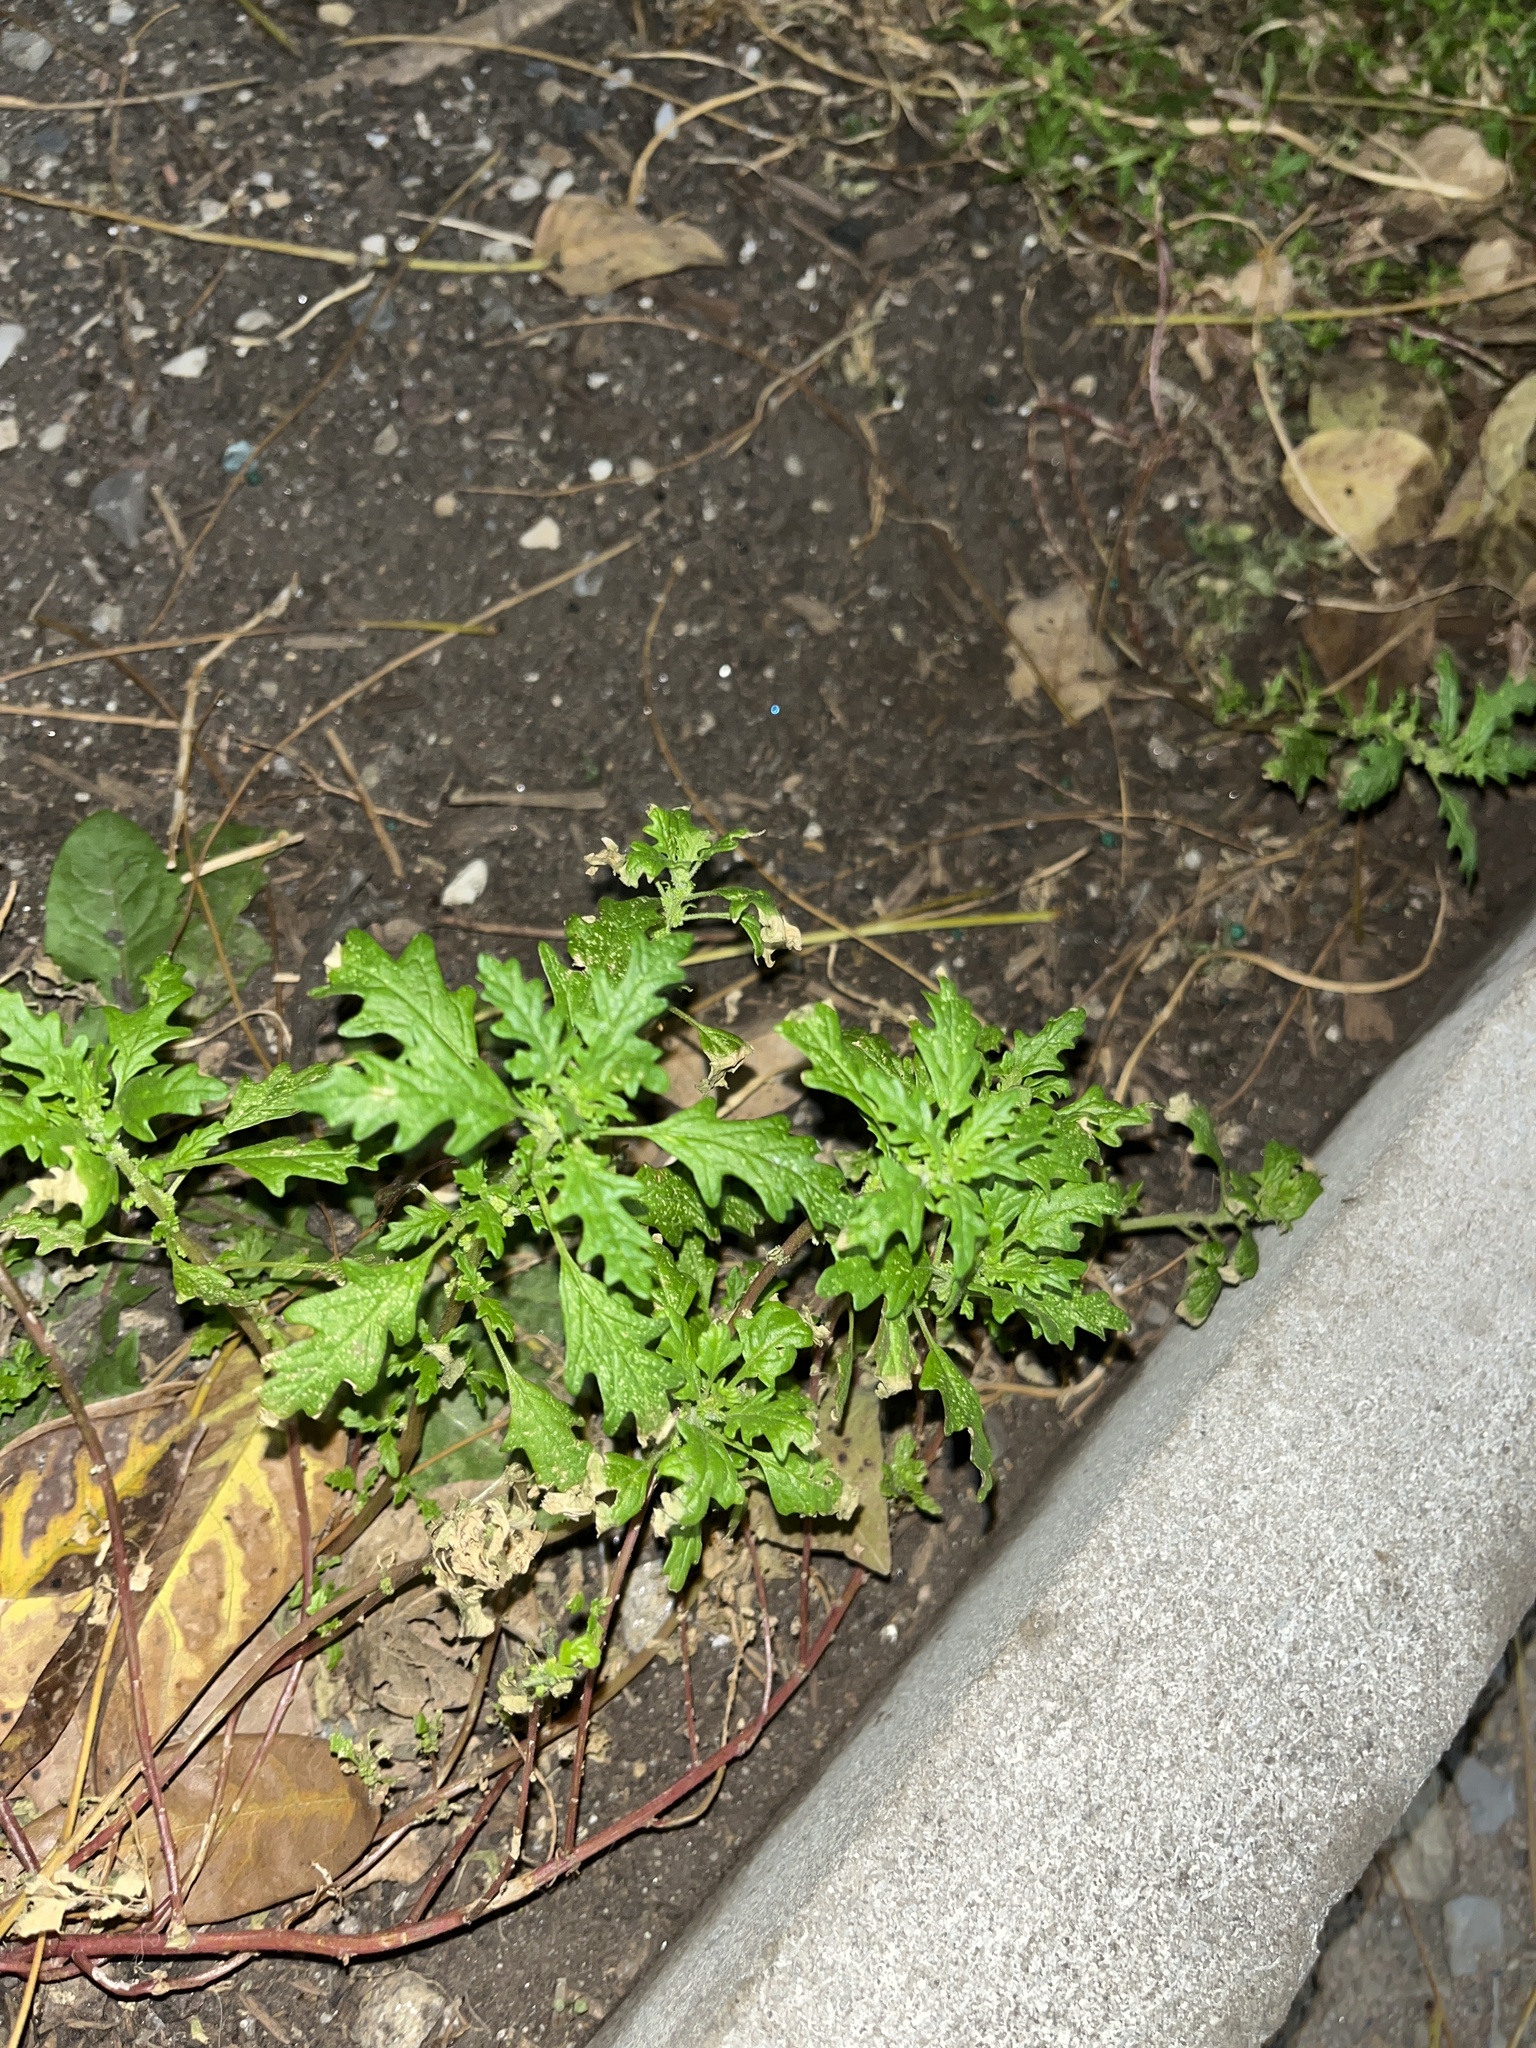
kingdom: Plantae
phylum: Tracheophyta
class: Magnoliopsida
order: Caryophyllales
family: Amaranthaceae
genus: Dysphania
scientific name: Dysphania pumilio
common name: Clammy goosefoot
